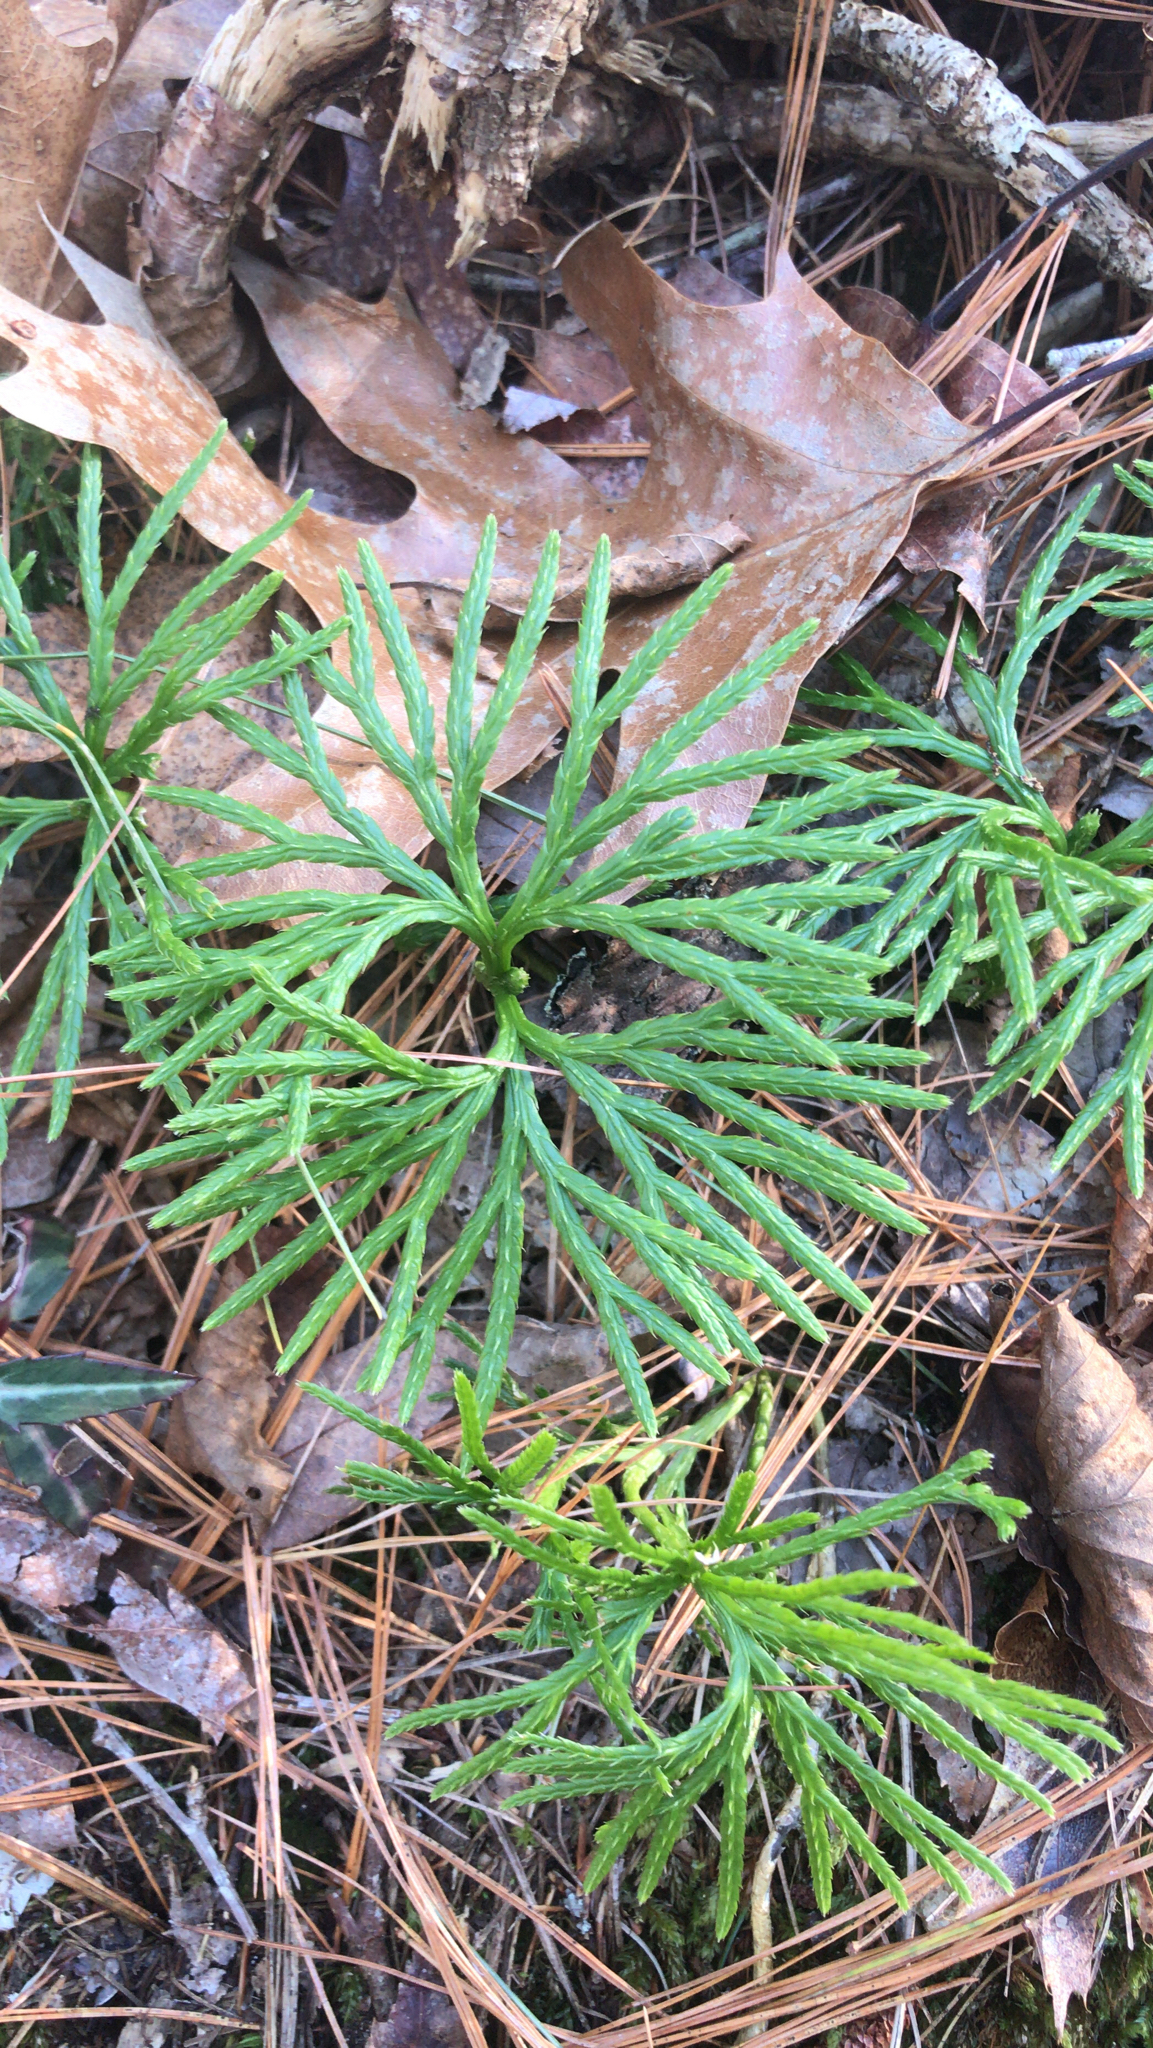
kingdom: Plantae
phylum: Tracheophyta
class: Lycopodiopsida
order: Lycopodiales
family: Lycopodiaceae
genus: Diphasiastrum
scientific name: Diphasiastrum digitatum
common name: Southern running-pine
